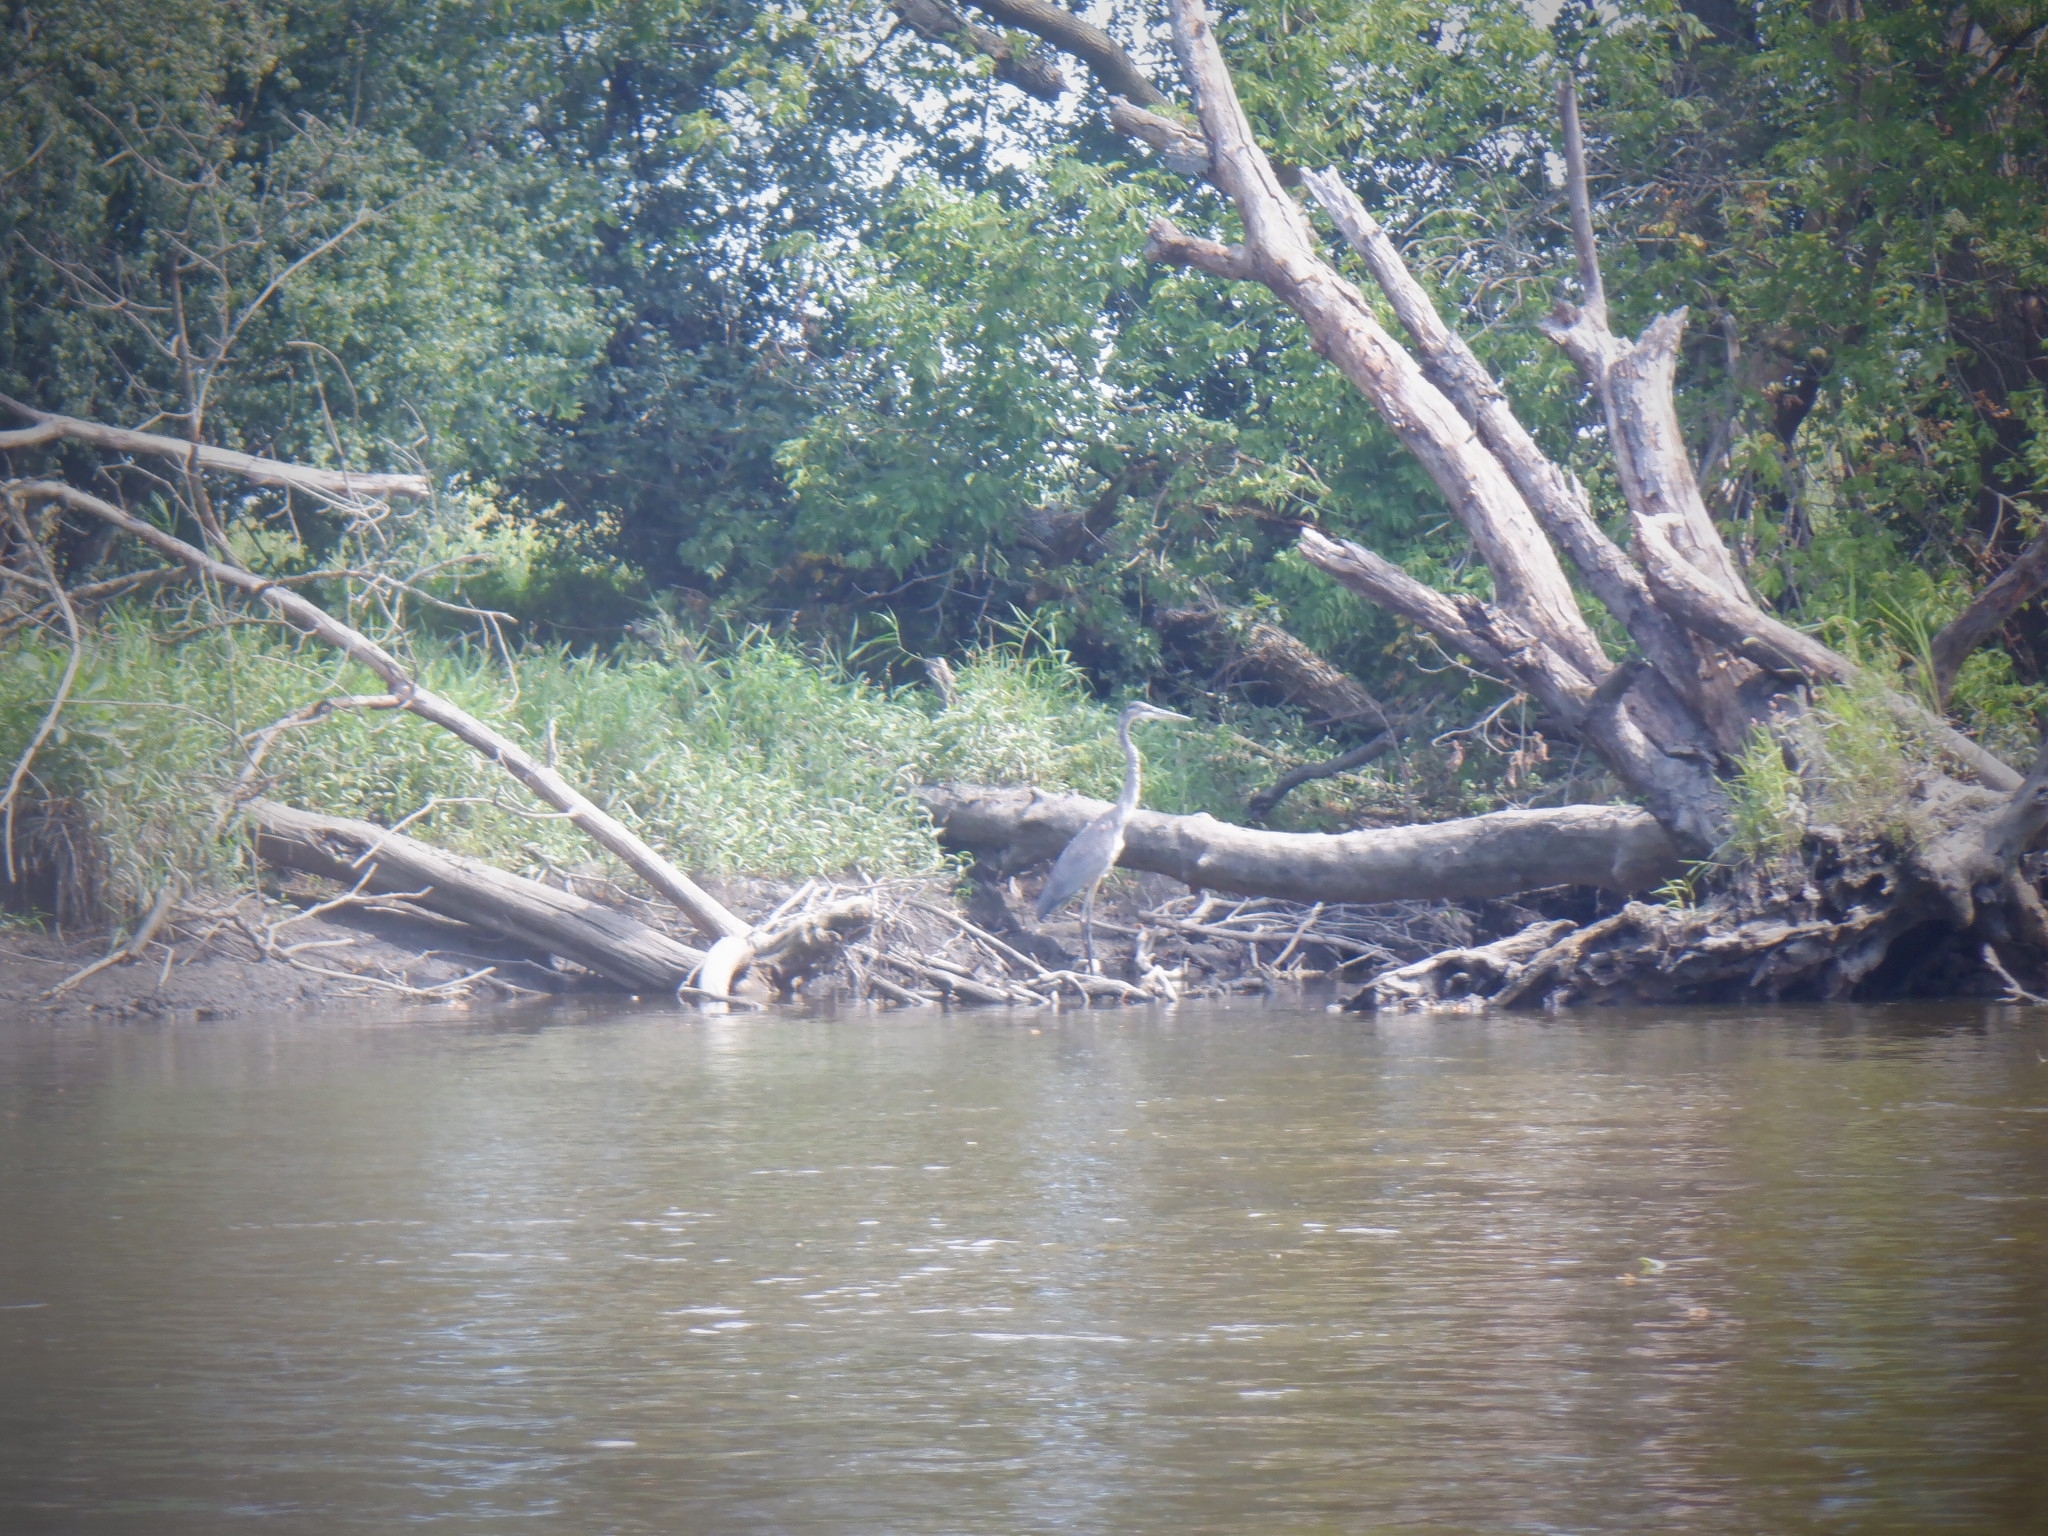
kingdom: Animalia
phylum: Chordata
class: Aves
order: Pelecaniformes
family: Ardeidae
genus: Ardea
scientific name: Ardea herodias
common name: Great blue heron
